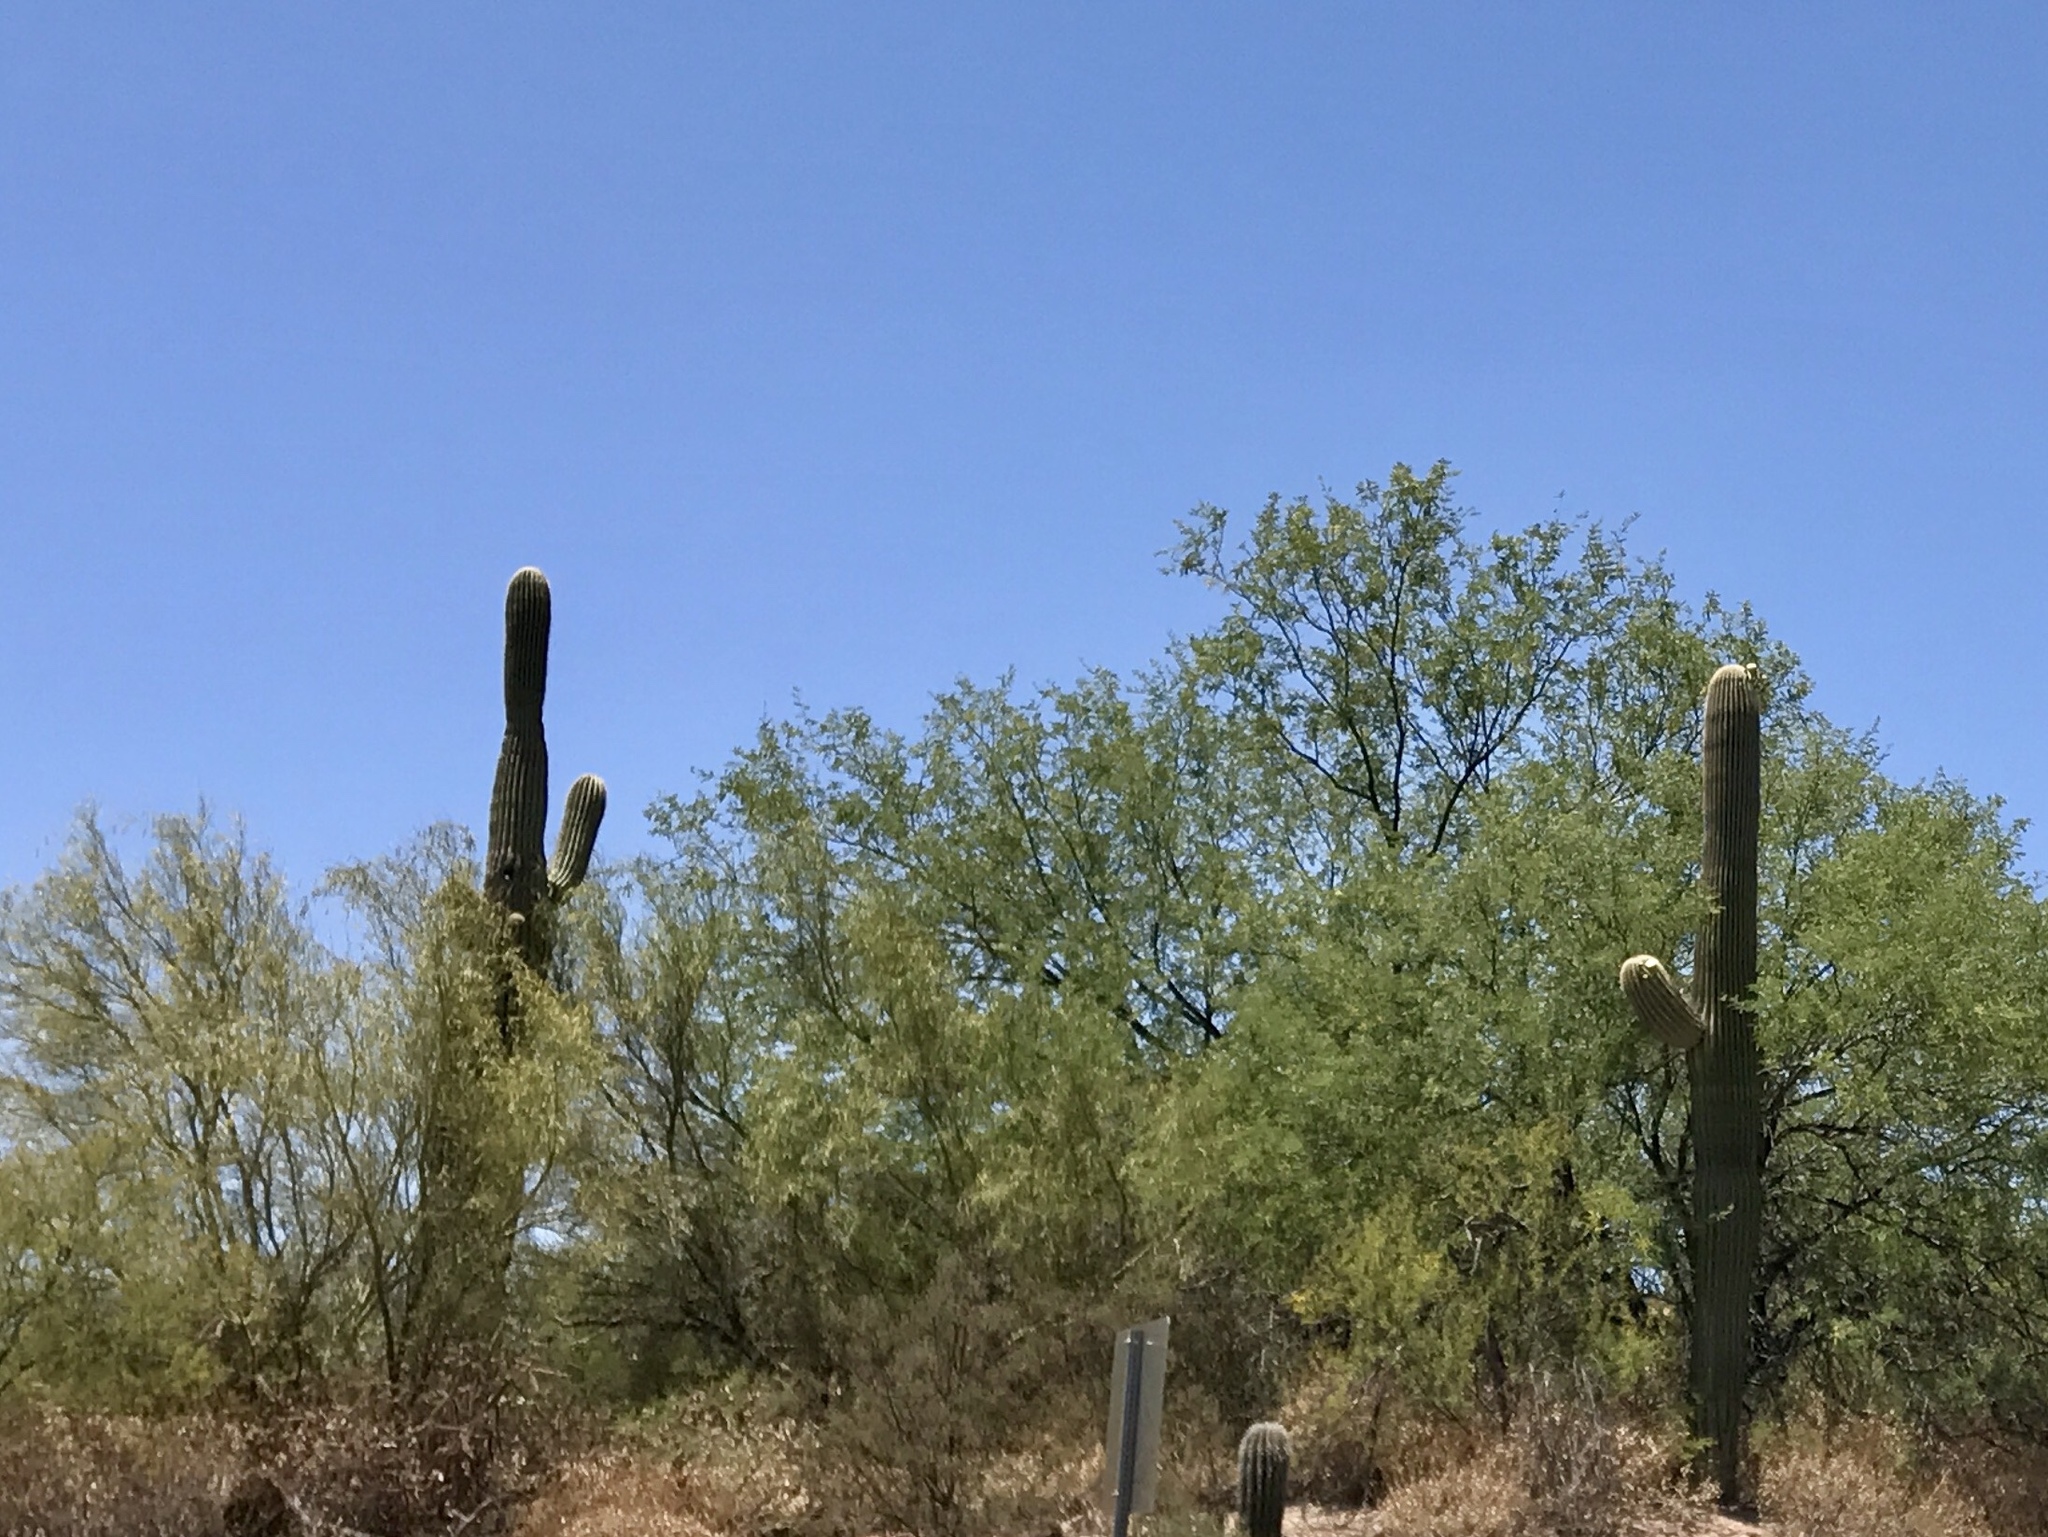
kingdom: Plantae
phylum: Tracheophyta
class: Magnoliopsida
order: Caryophyllales
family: Cactaceae
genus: Carnegiea
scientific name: Carnegiea gigantea
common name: Saguaro
